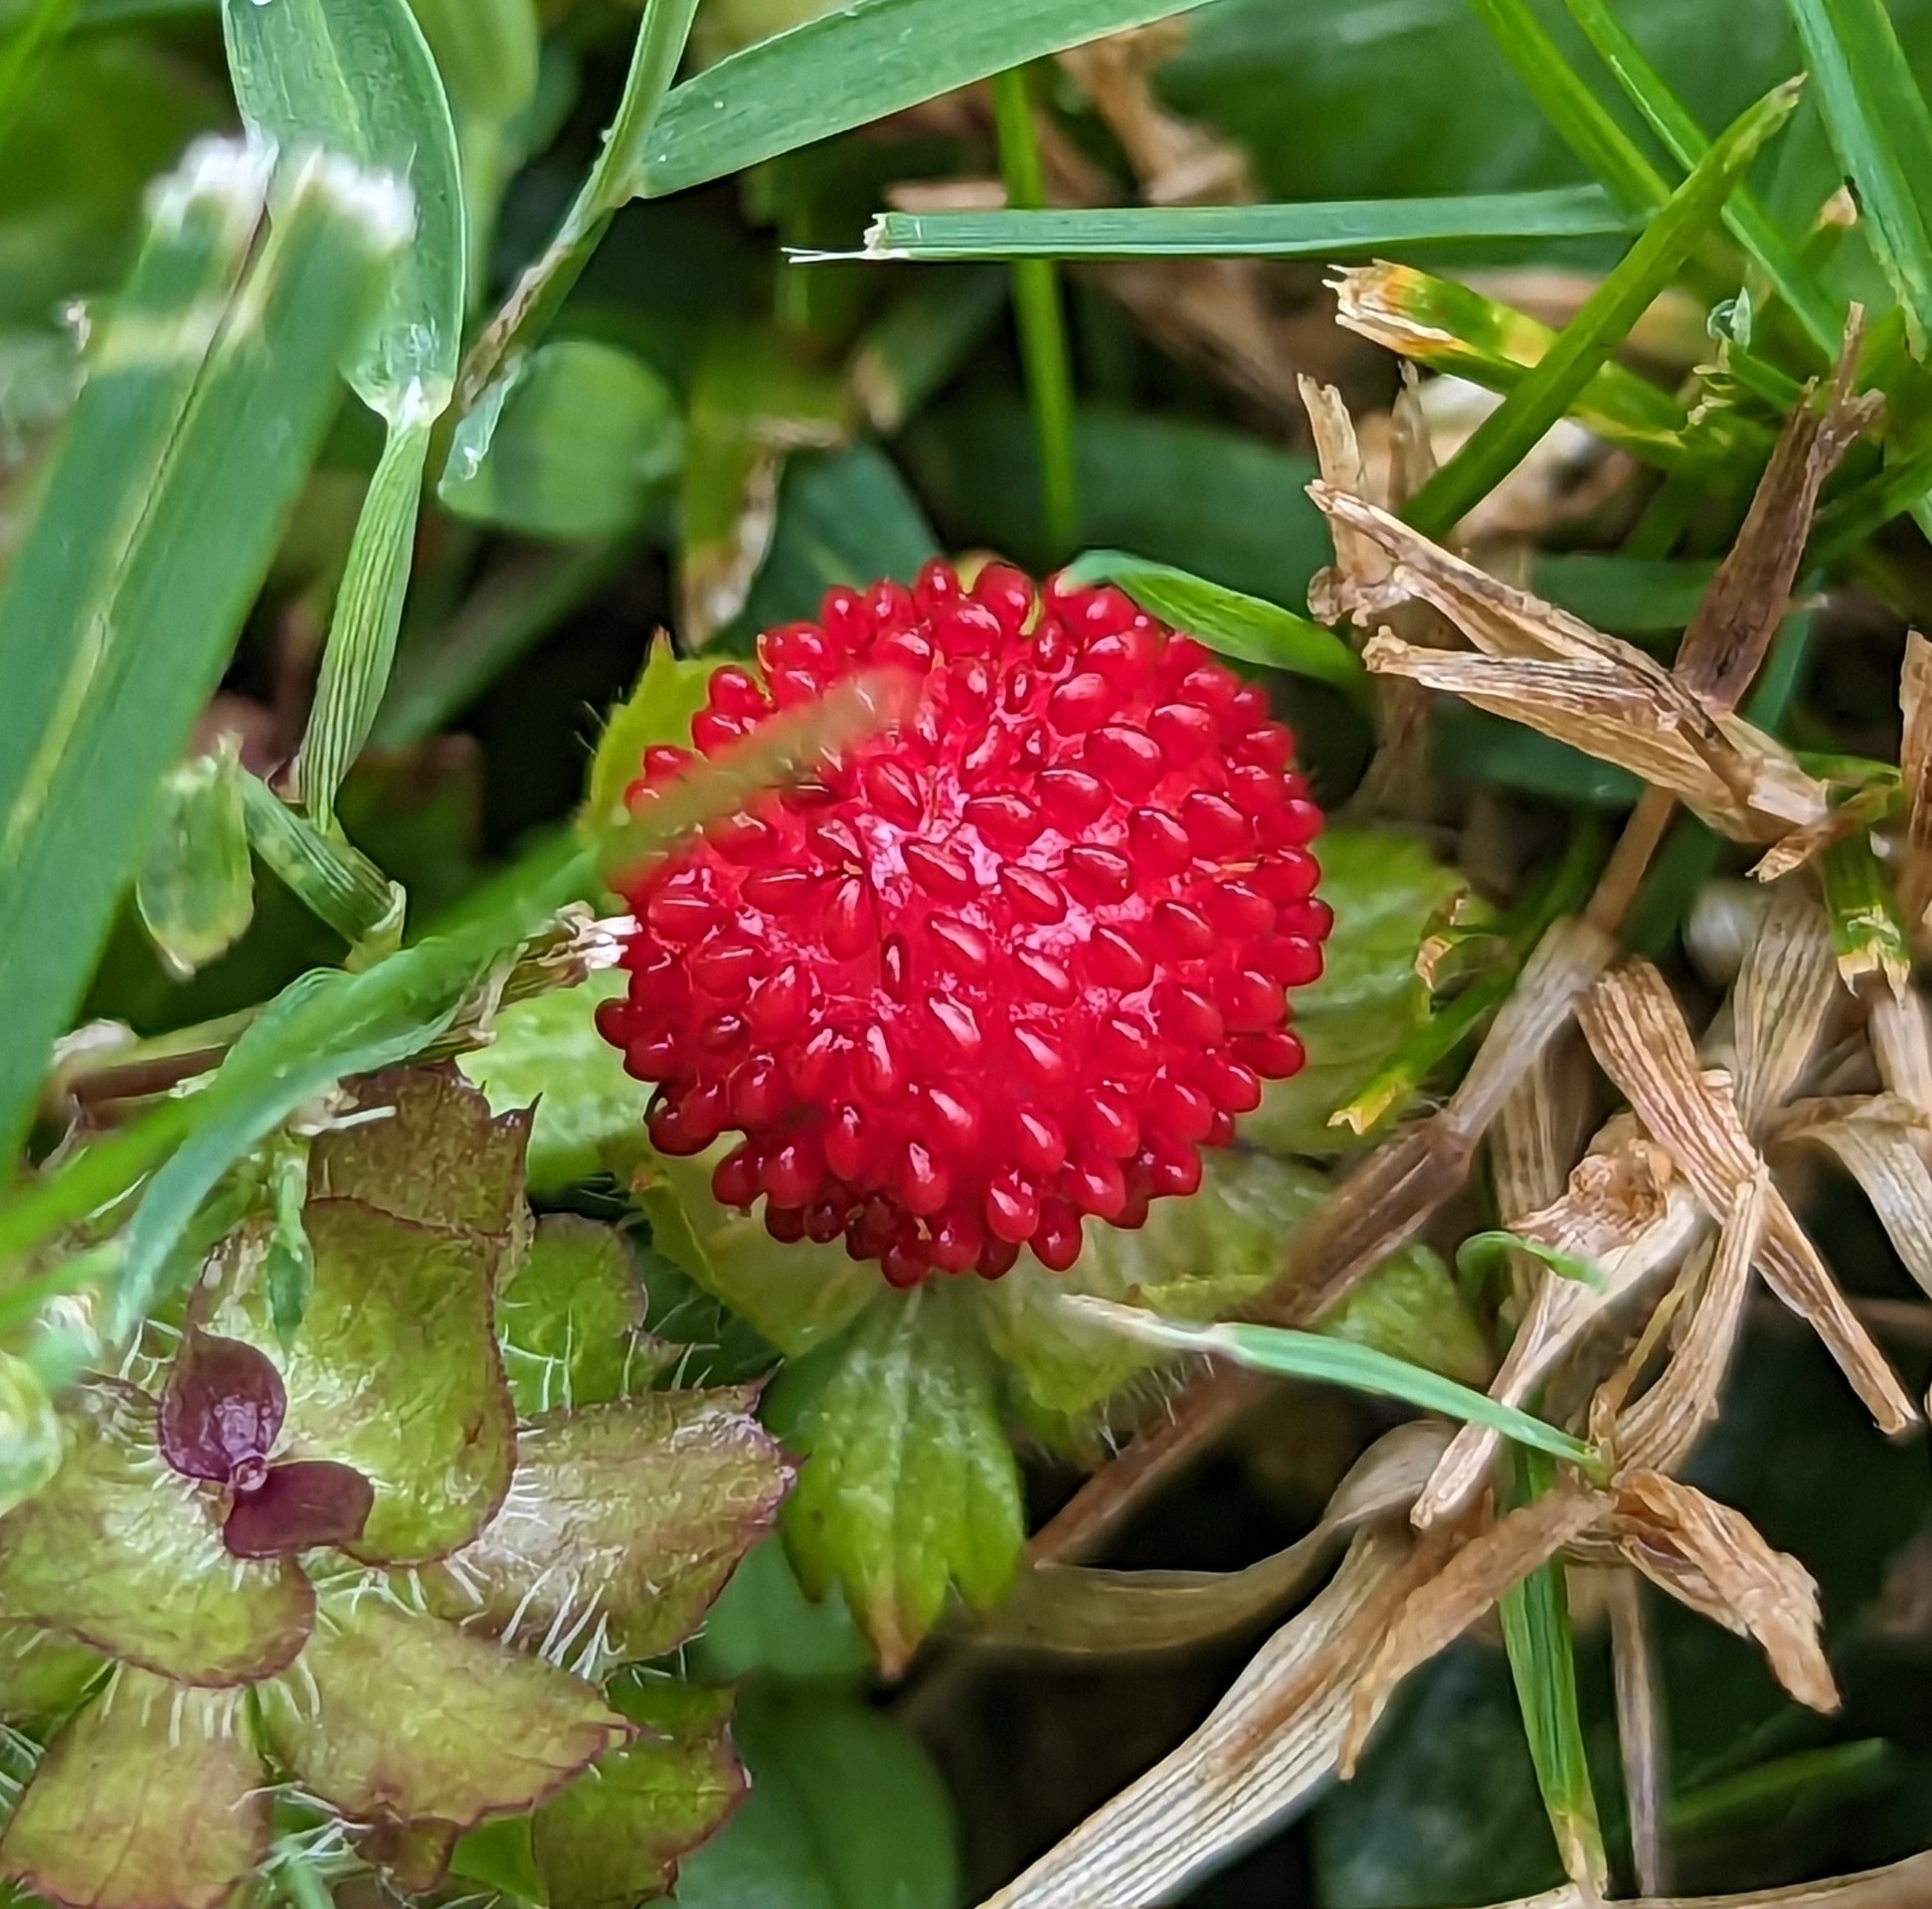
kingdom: Plantae
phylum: Tracheophyta
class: Magnoliopsida
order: Rosales
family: Rosaceae
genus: Potentilla
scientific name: Potentilla indica
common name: Yellow-flowered strawberry
